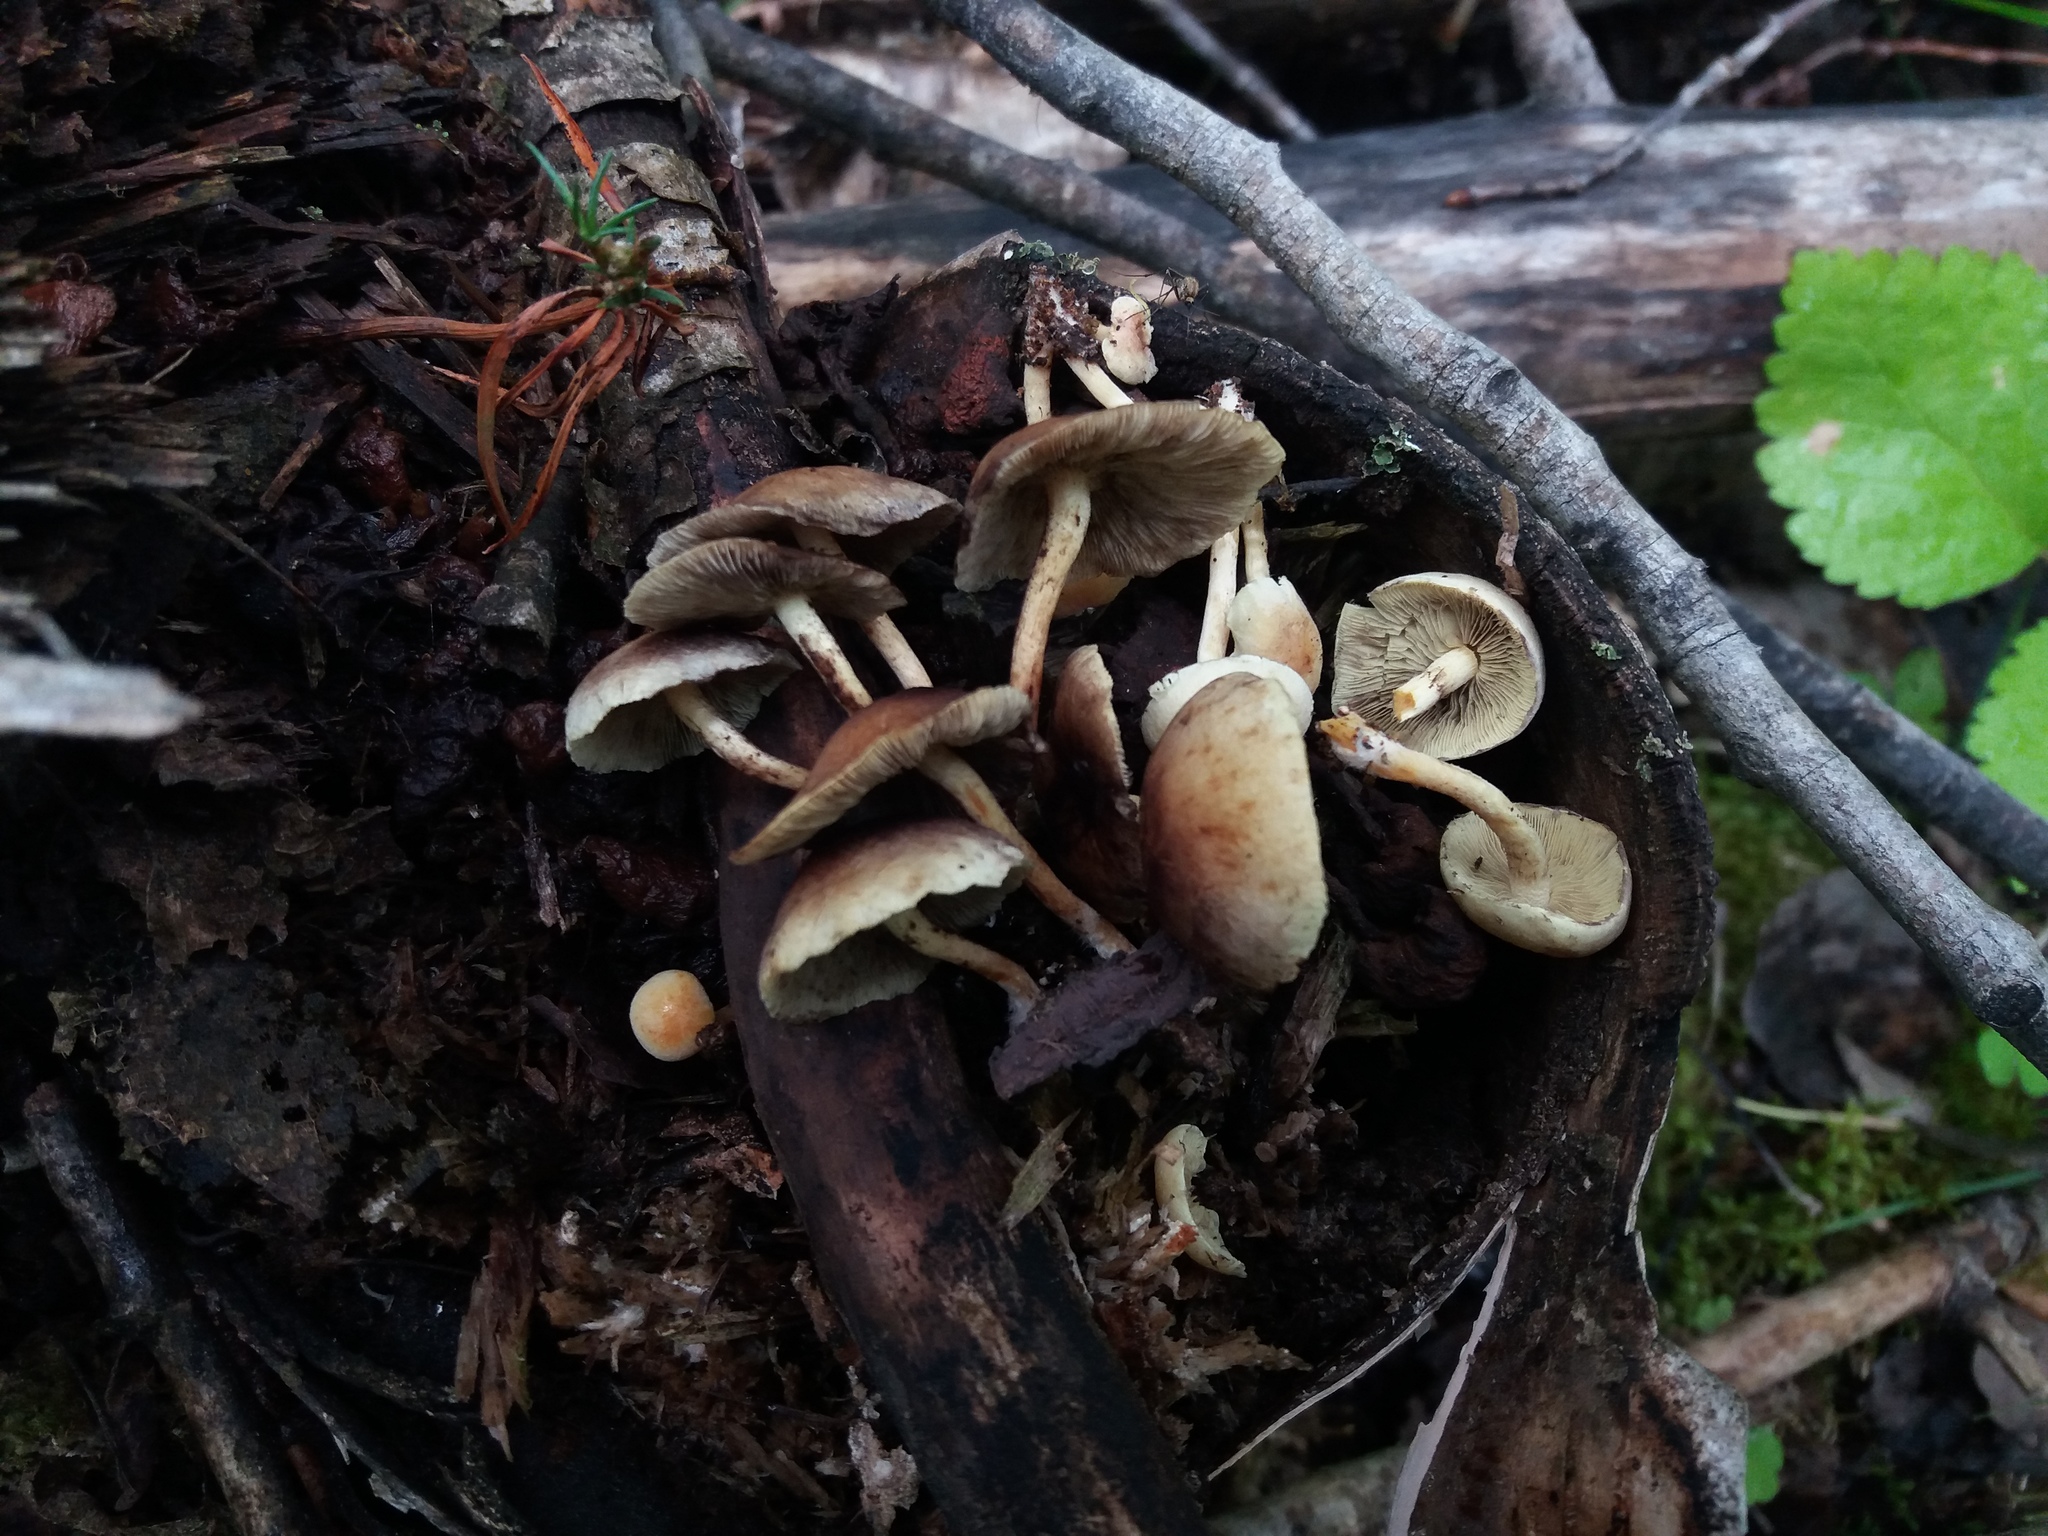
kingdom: Fungi
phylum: Basidiomycota
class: Agaricomycetes
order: Agaricales
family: Strophariaceae
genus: Hypholoma
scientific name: Hypholoma fasciculare
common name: Sulphur tuft
